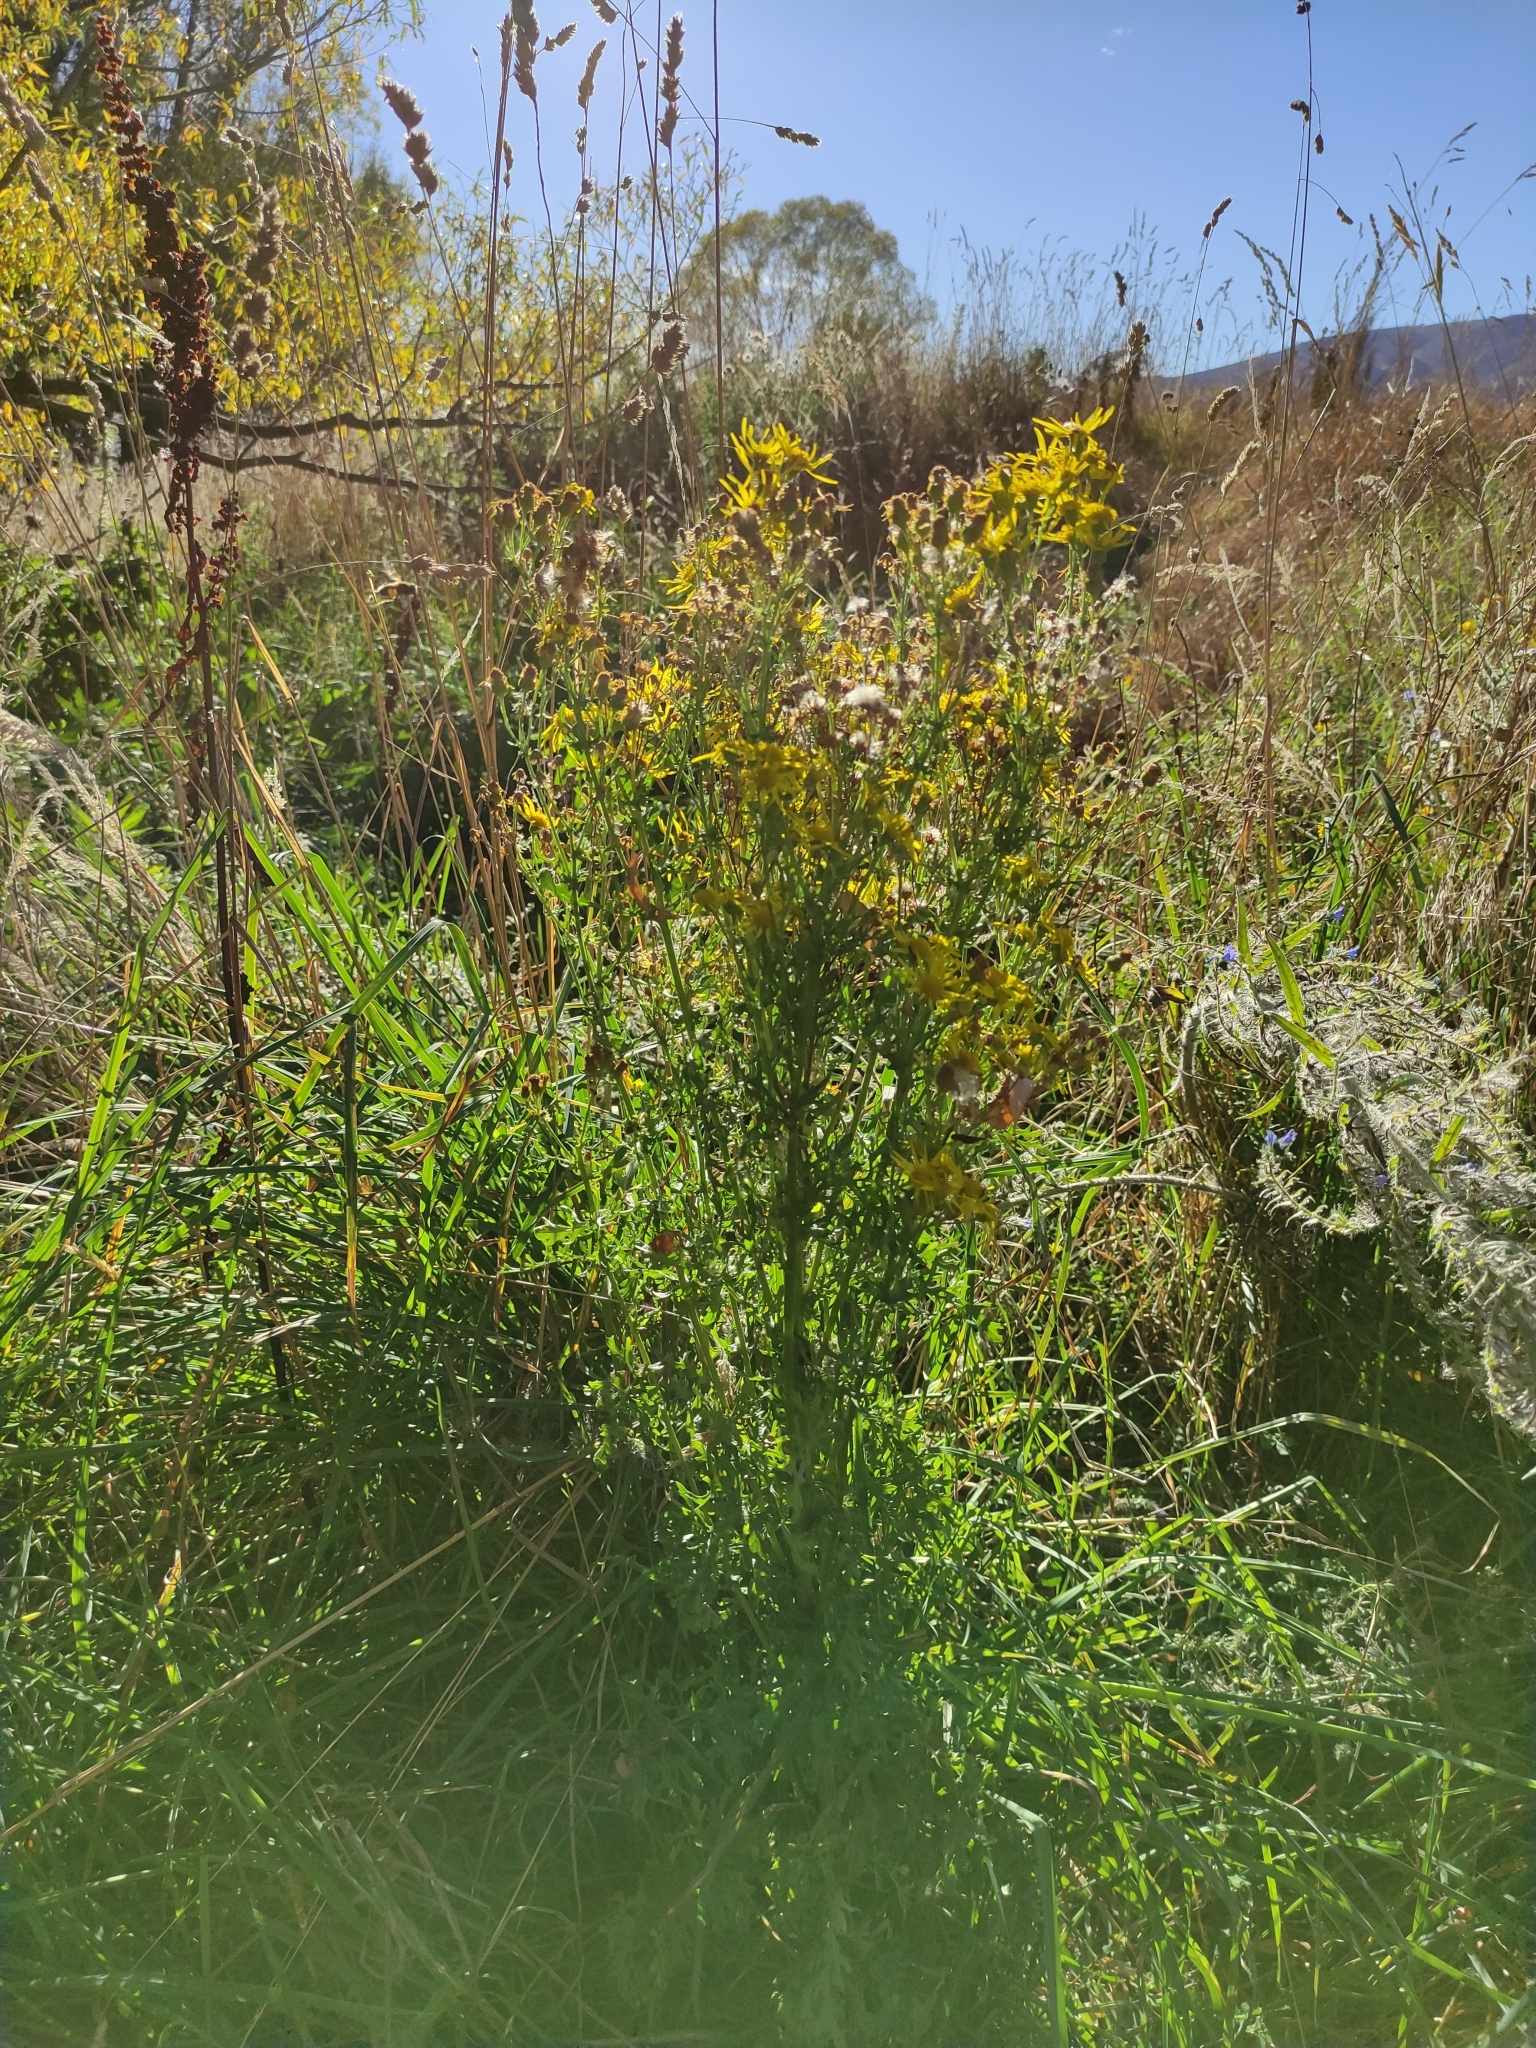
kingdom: Plantae
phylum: Tracheophyta
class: Magnoliopsida
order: Asterales
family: Asteraceae
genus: Jacobaea
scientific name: Jacobaea vulgaris
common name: Stinking willie
